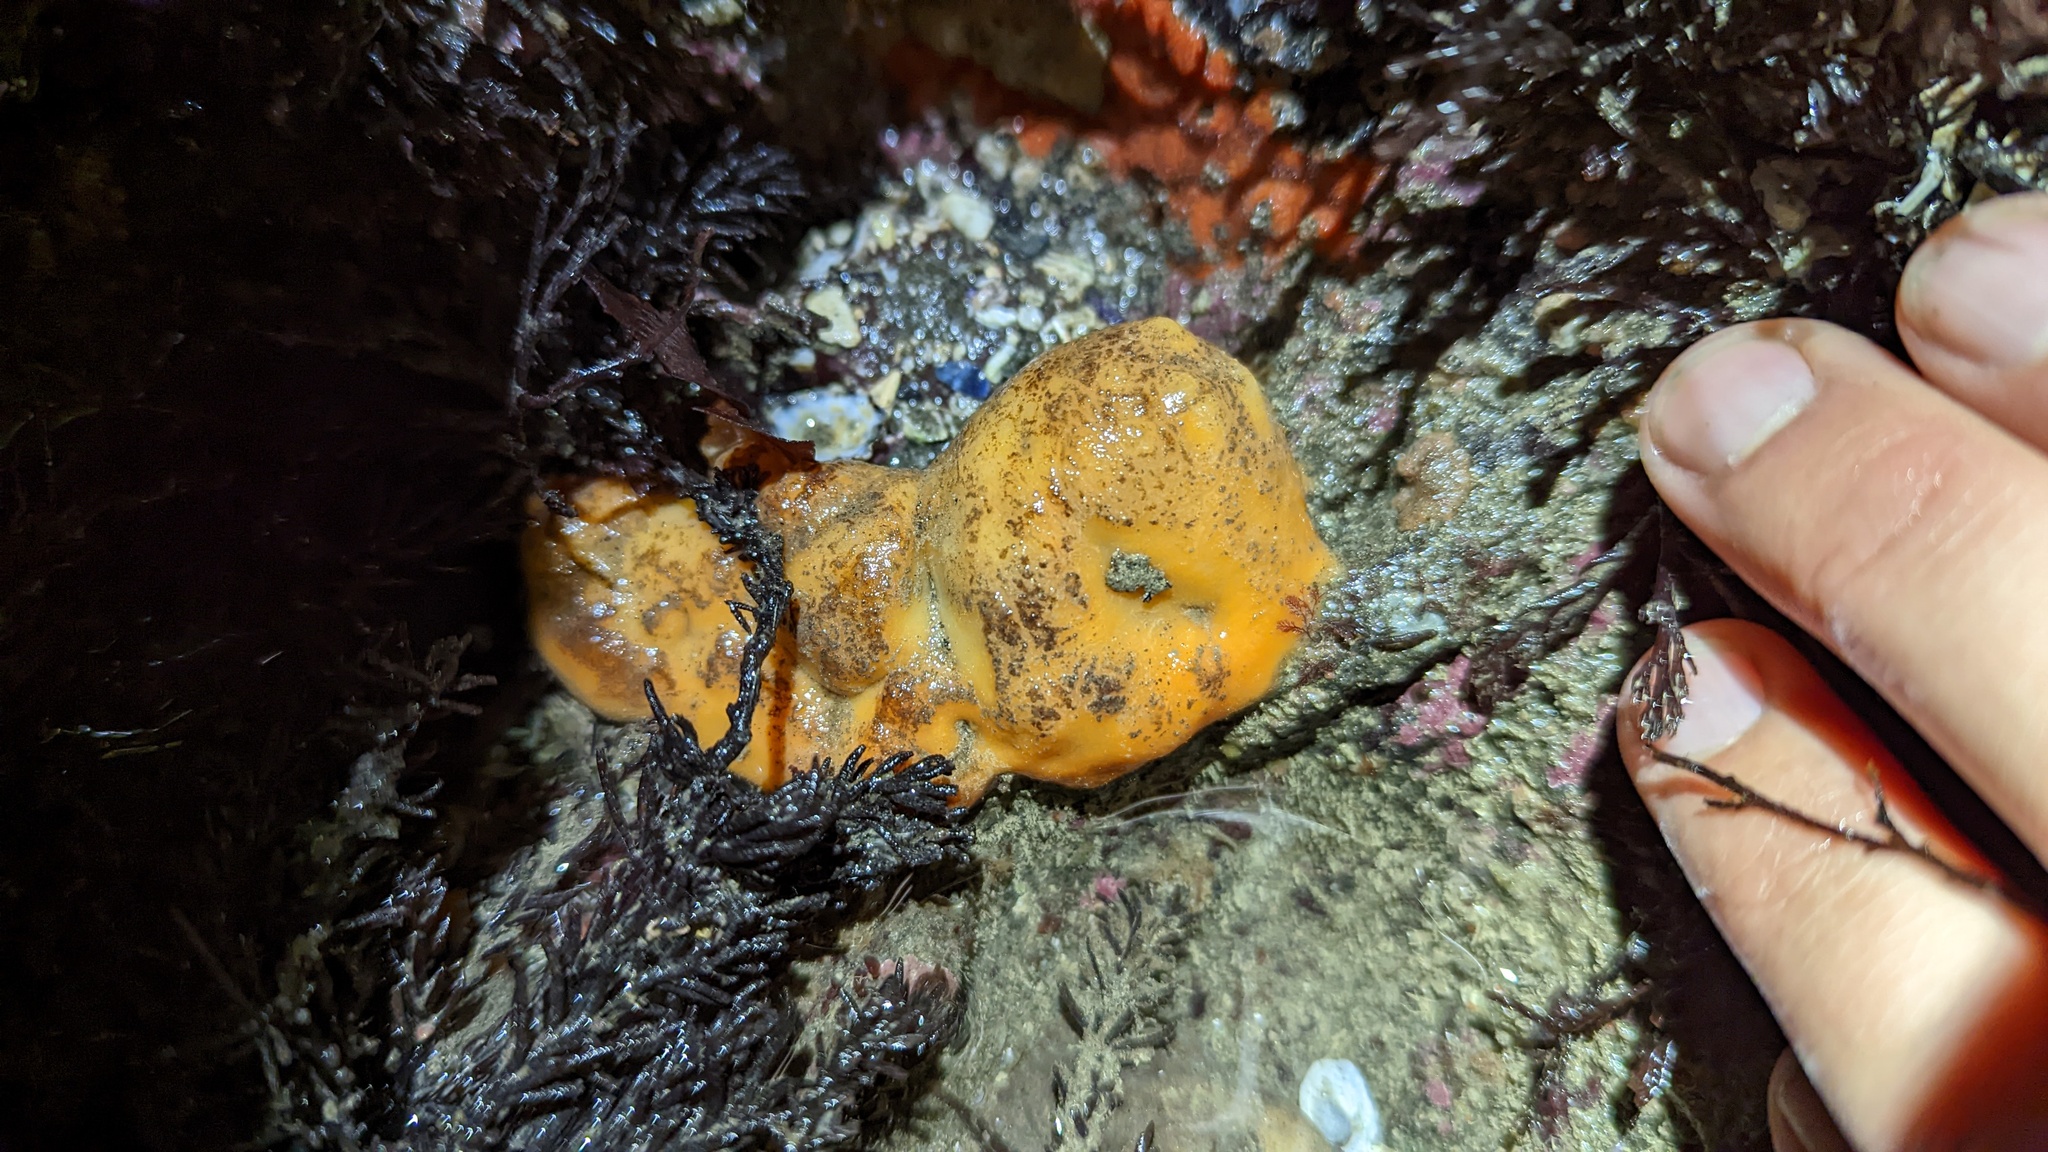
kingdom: Animalia
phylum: Porifera
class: Demospongiae
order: Suberitida
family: Suberitidae
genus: Suberites
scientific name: Suberites lambei
